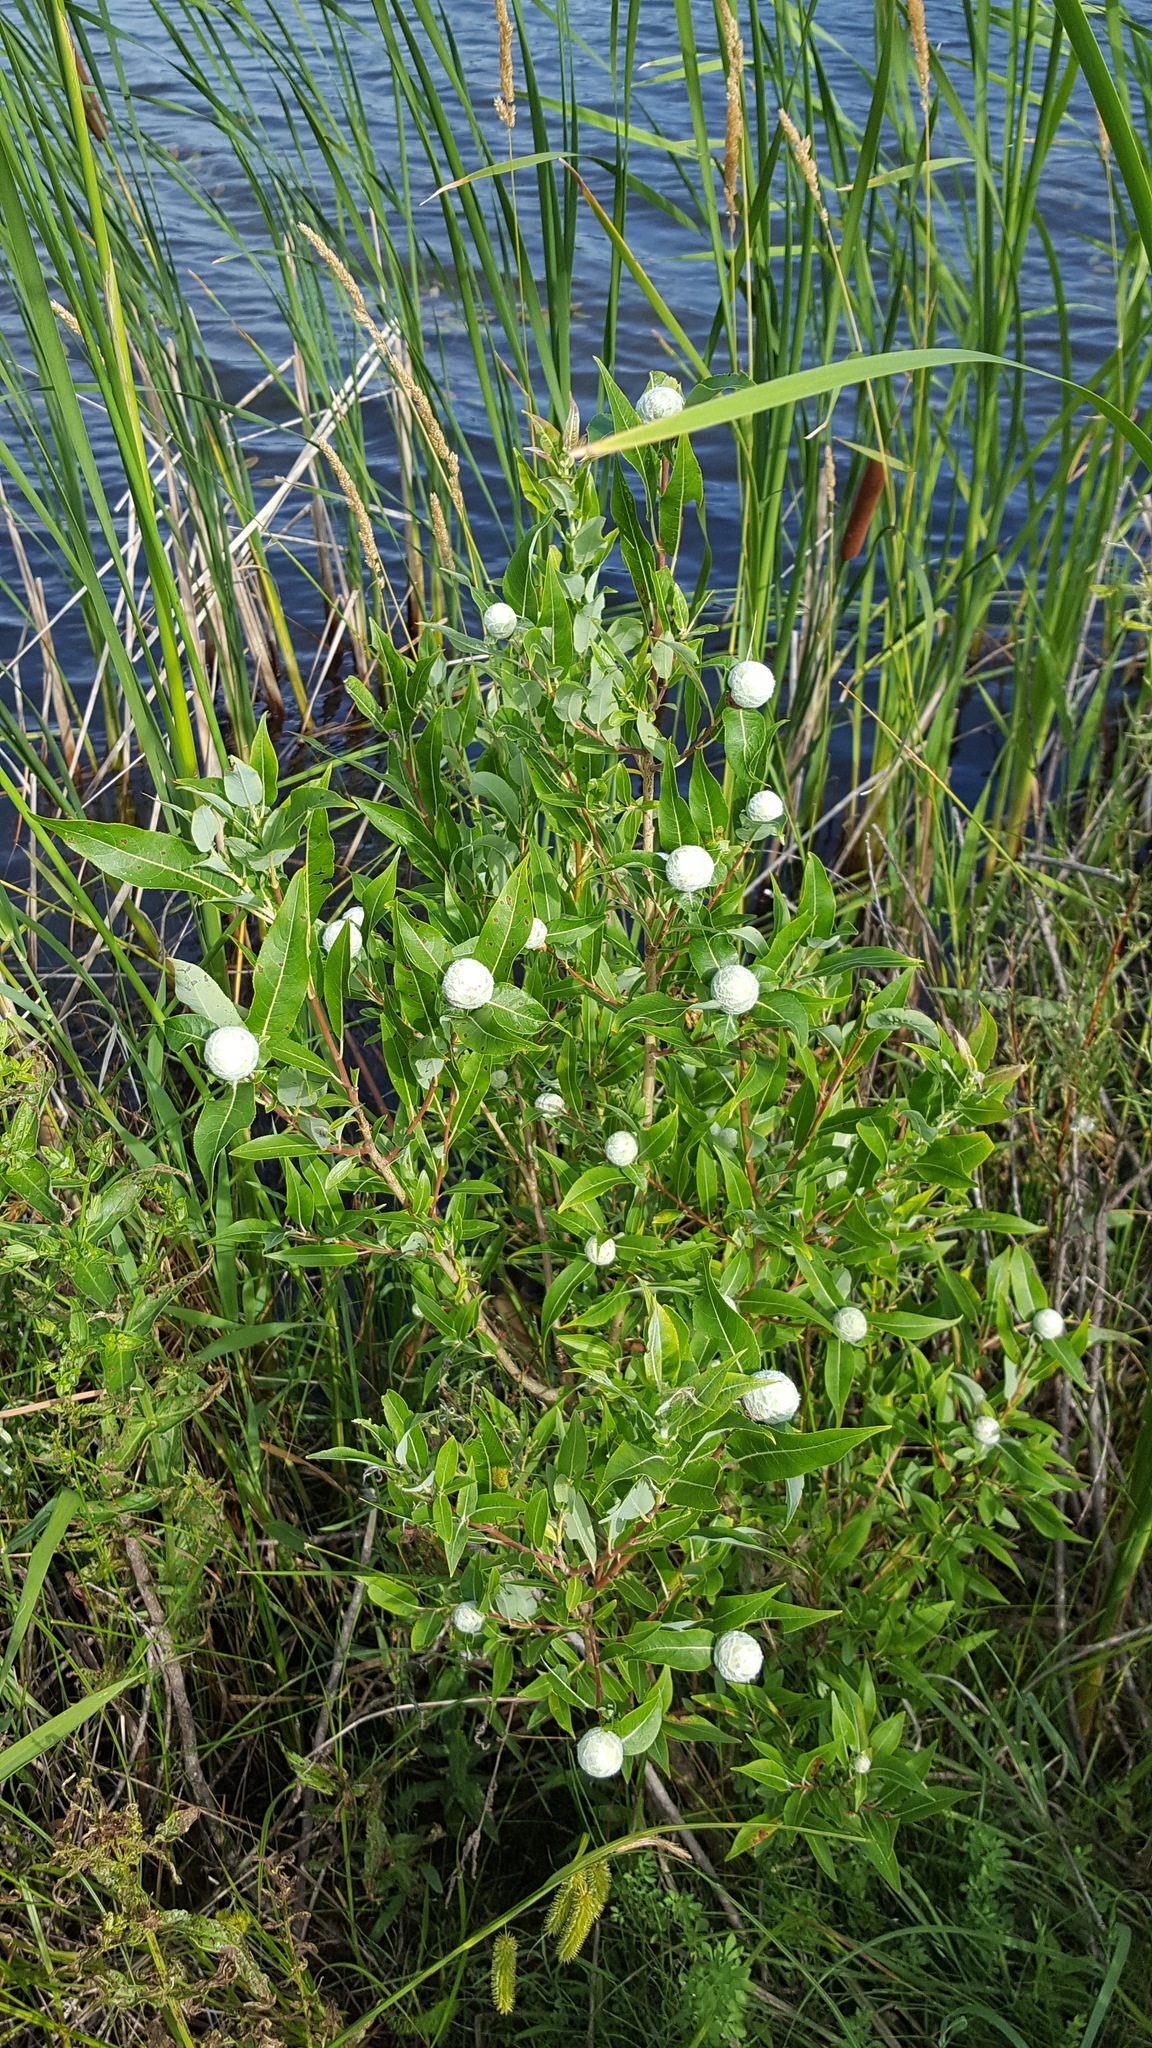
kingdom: Animalia
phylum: Arthropoda
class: Insecta
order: Diptera
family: Cecidomyiidae
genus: Rabdophaga
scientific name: Rabdophaga strobiloides
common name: Willow pinecone gall midge
